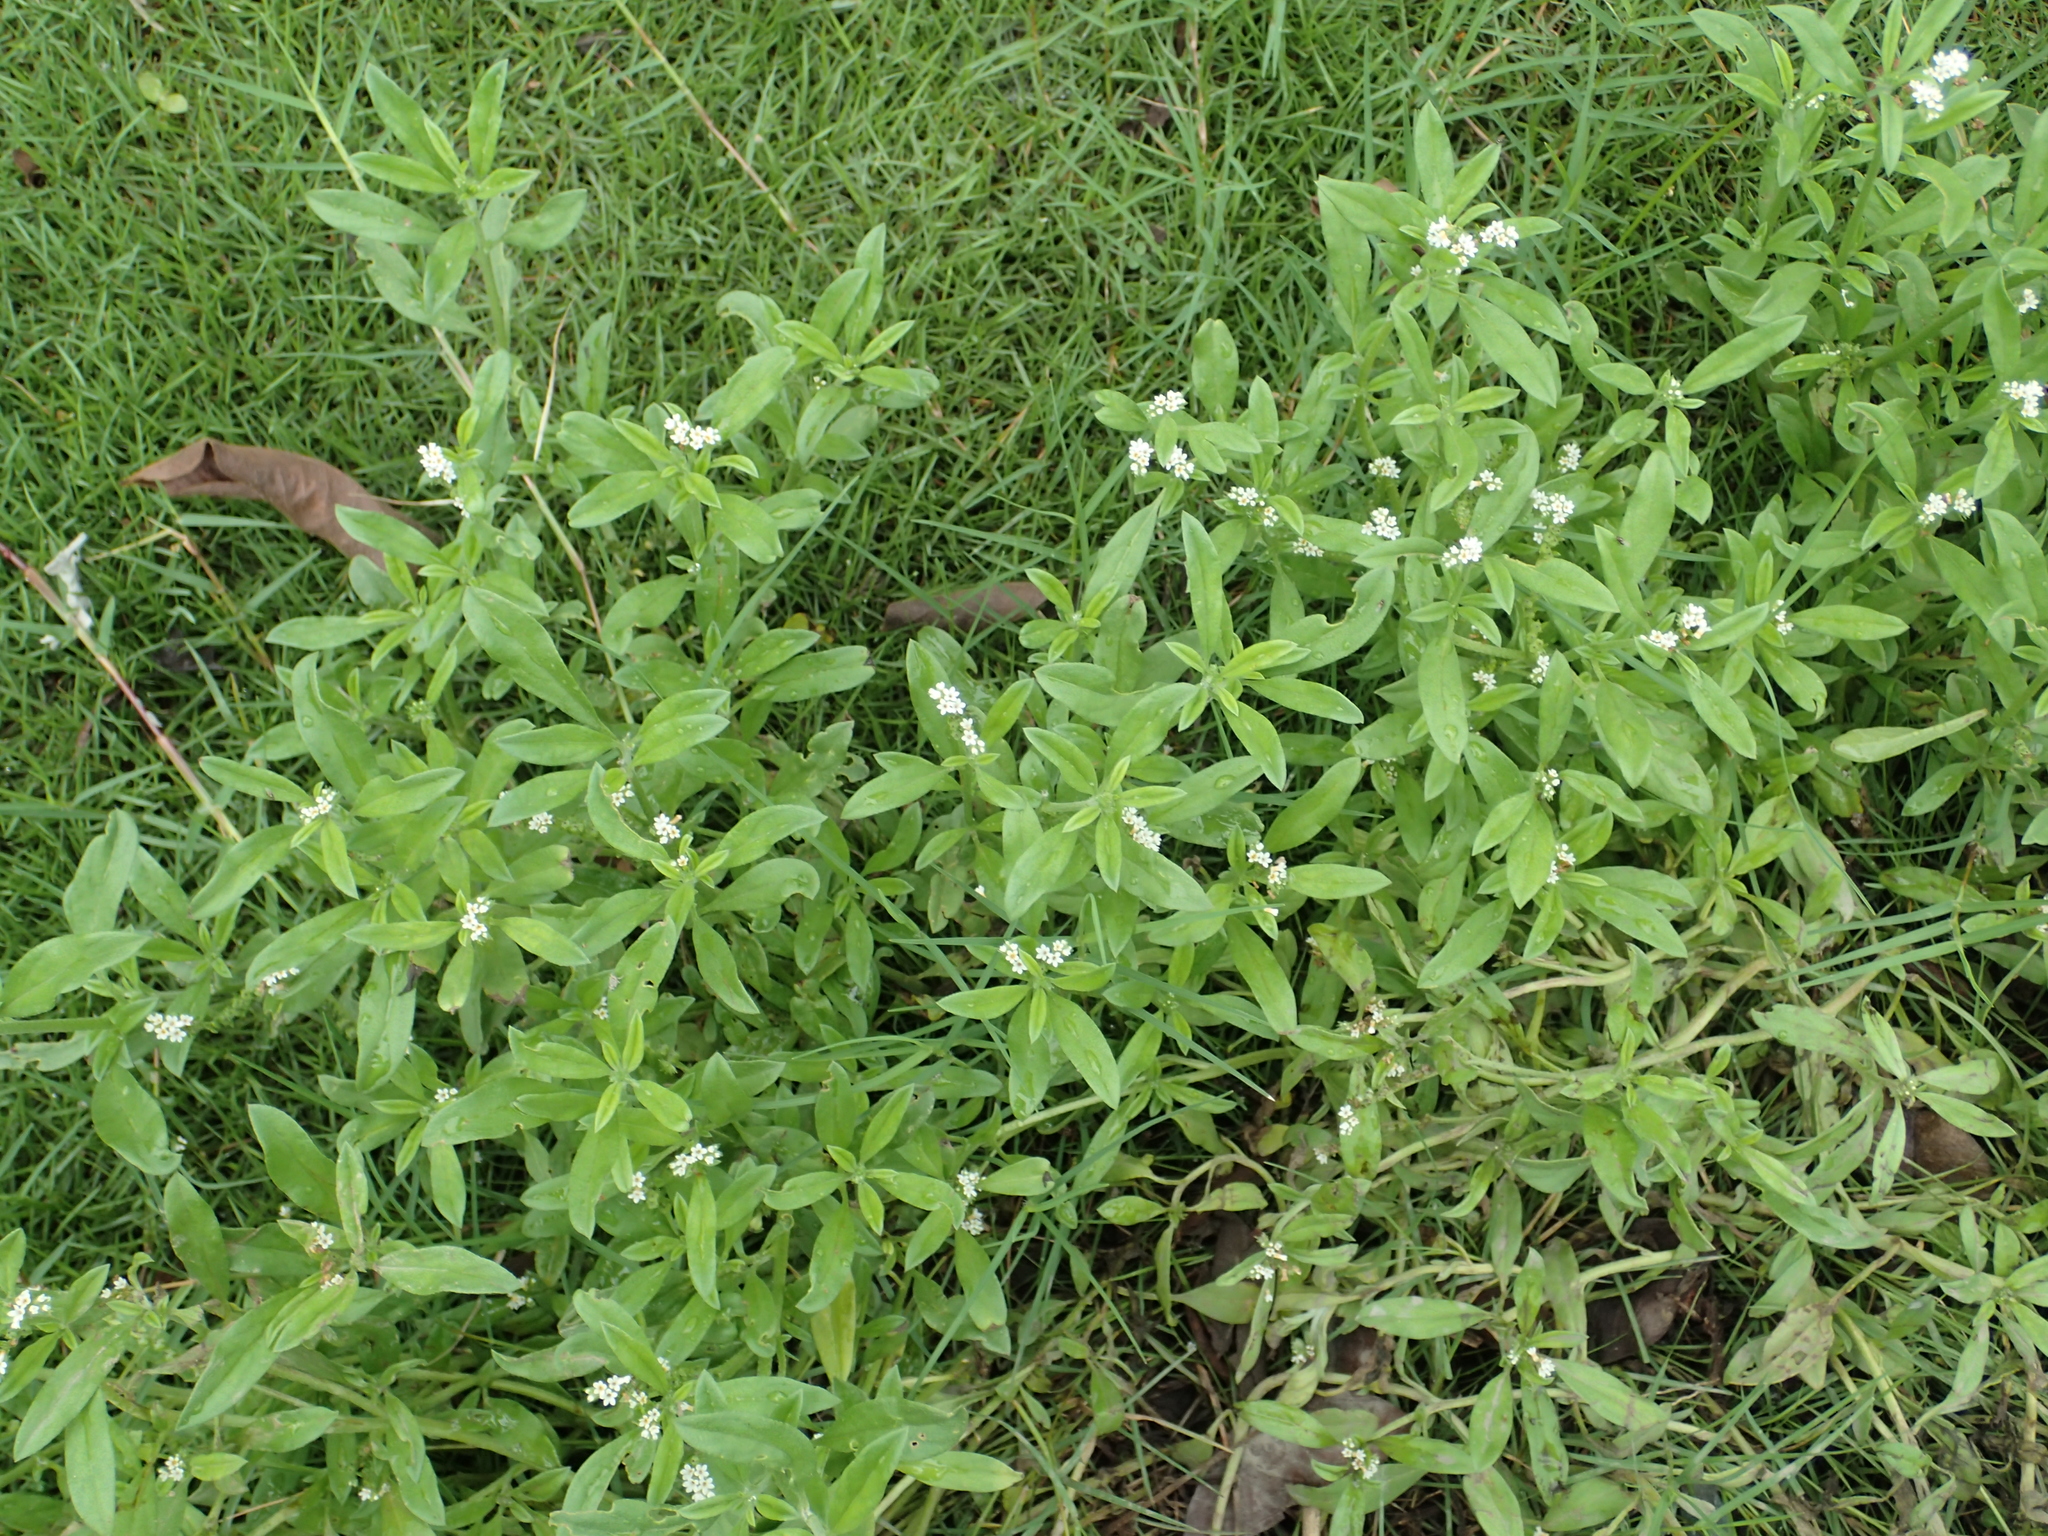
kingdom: Plantae
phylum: Tracheophyta
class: Magnoliopsida
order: Boraginales
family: Heliotropiaceae
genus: Euploca
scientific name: Euploca procumbens
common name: Fourspike heliotrope
